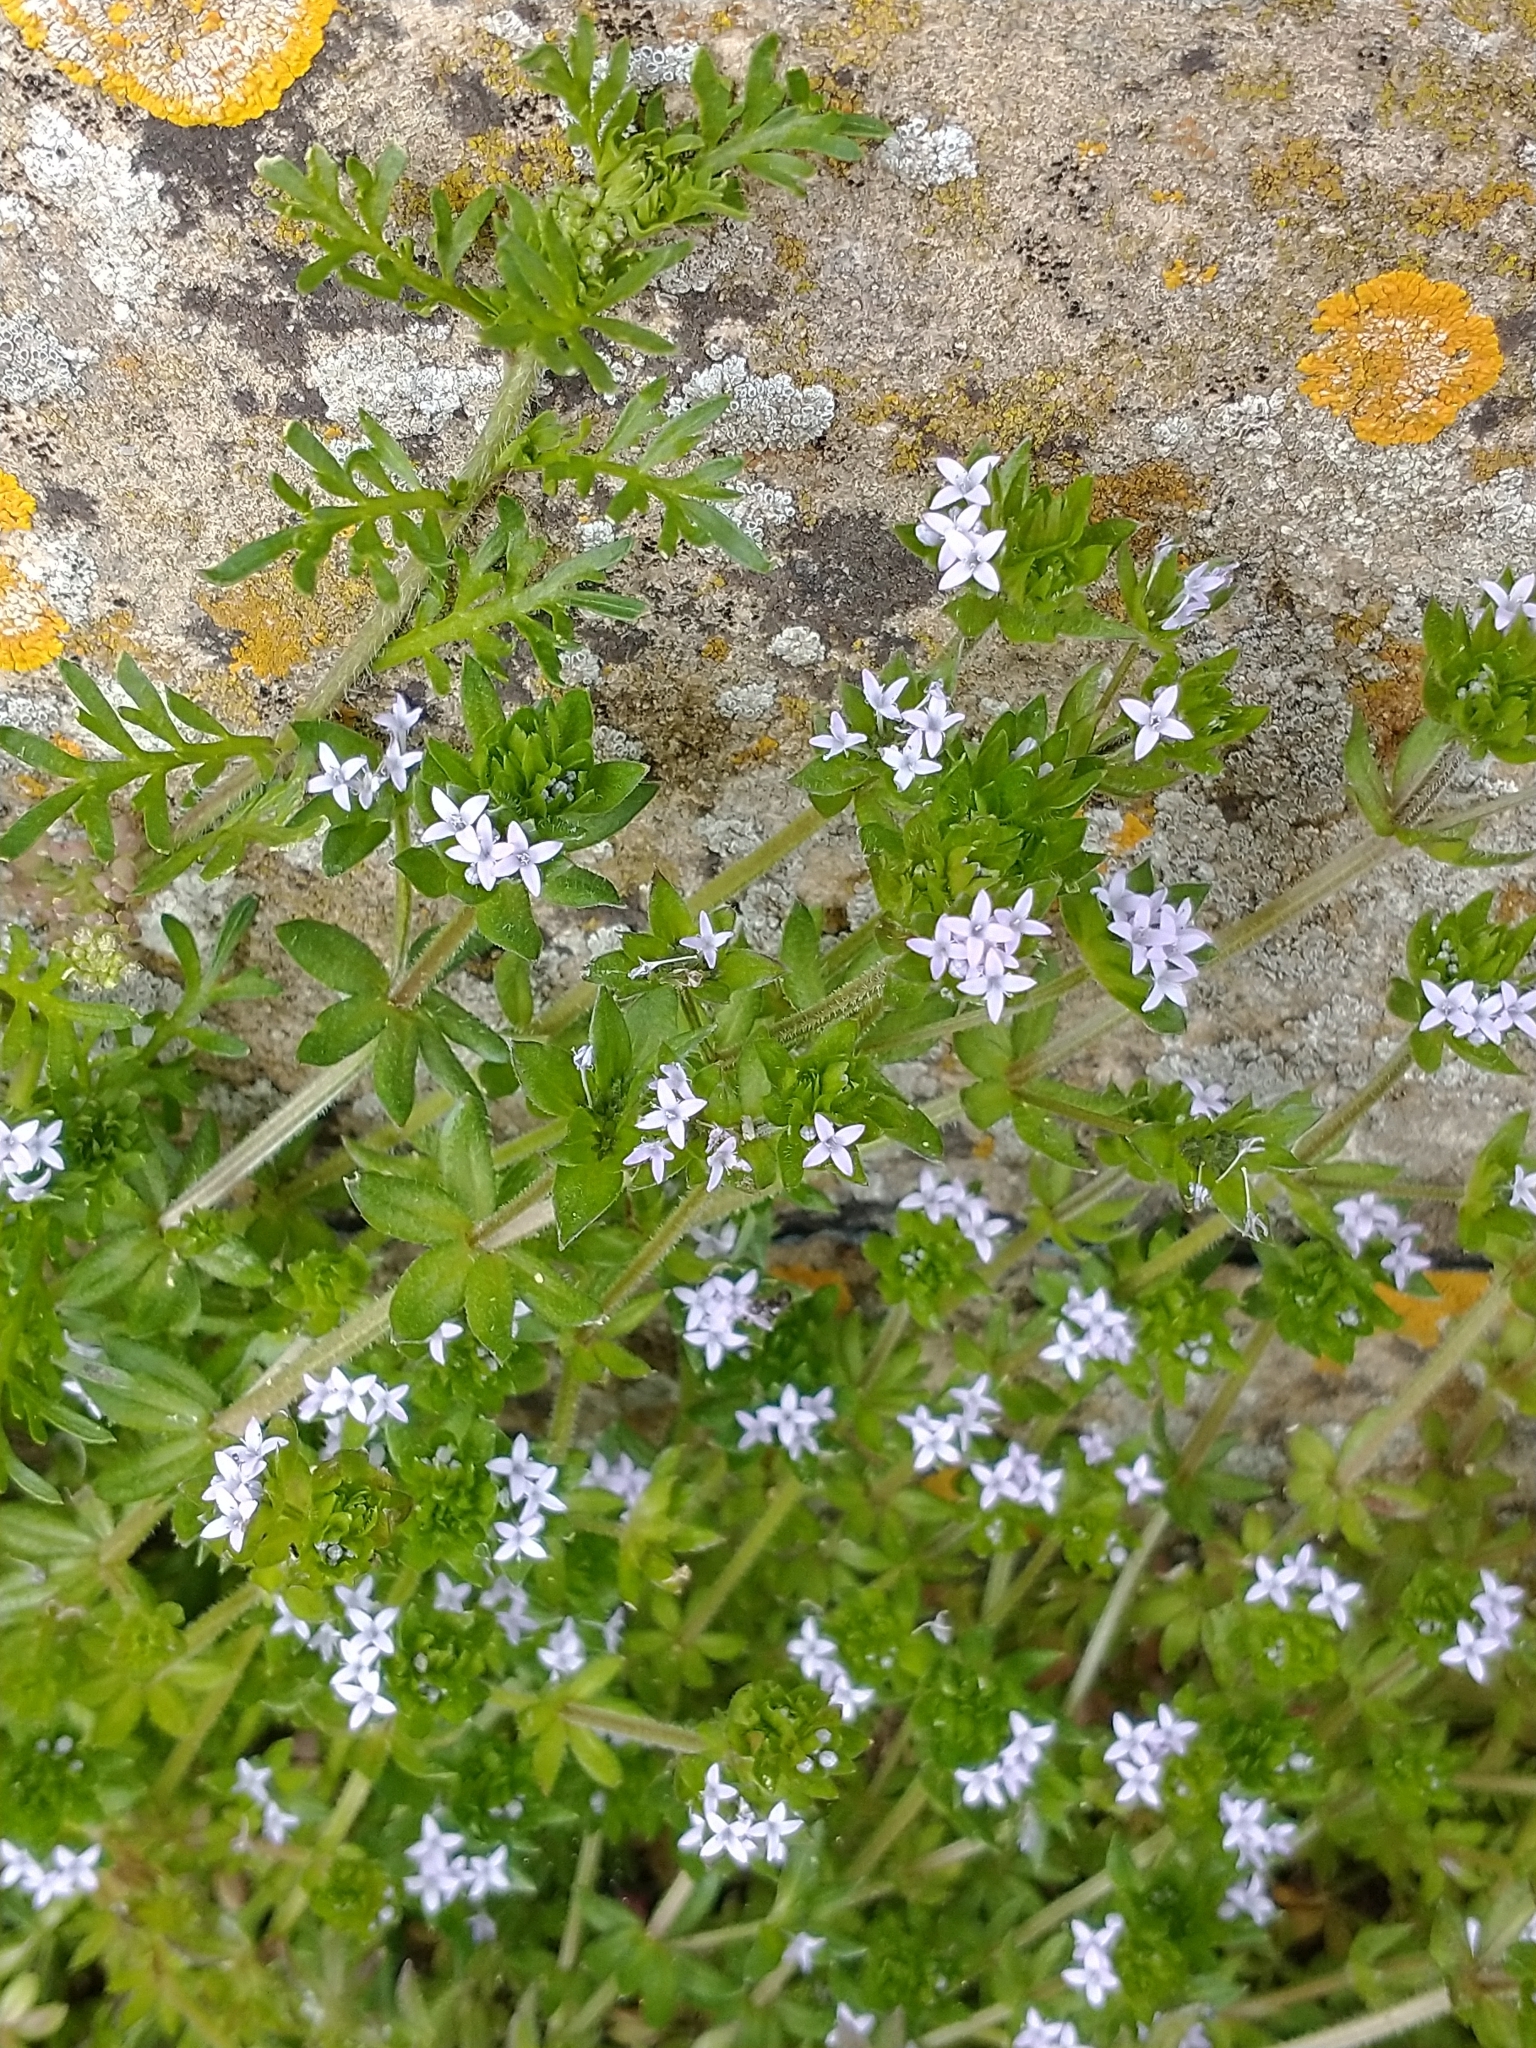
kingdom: Plantae
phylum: Tracheophyta
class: Magnoliopsida
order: Gentianales
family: Rubiaceae
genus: Sherardia
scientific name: Sherardia arvensis
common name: Field madder
